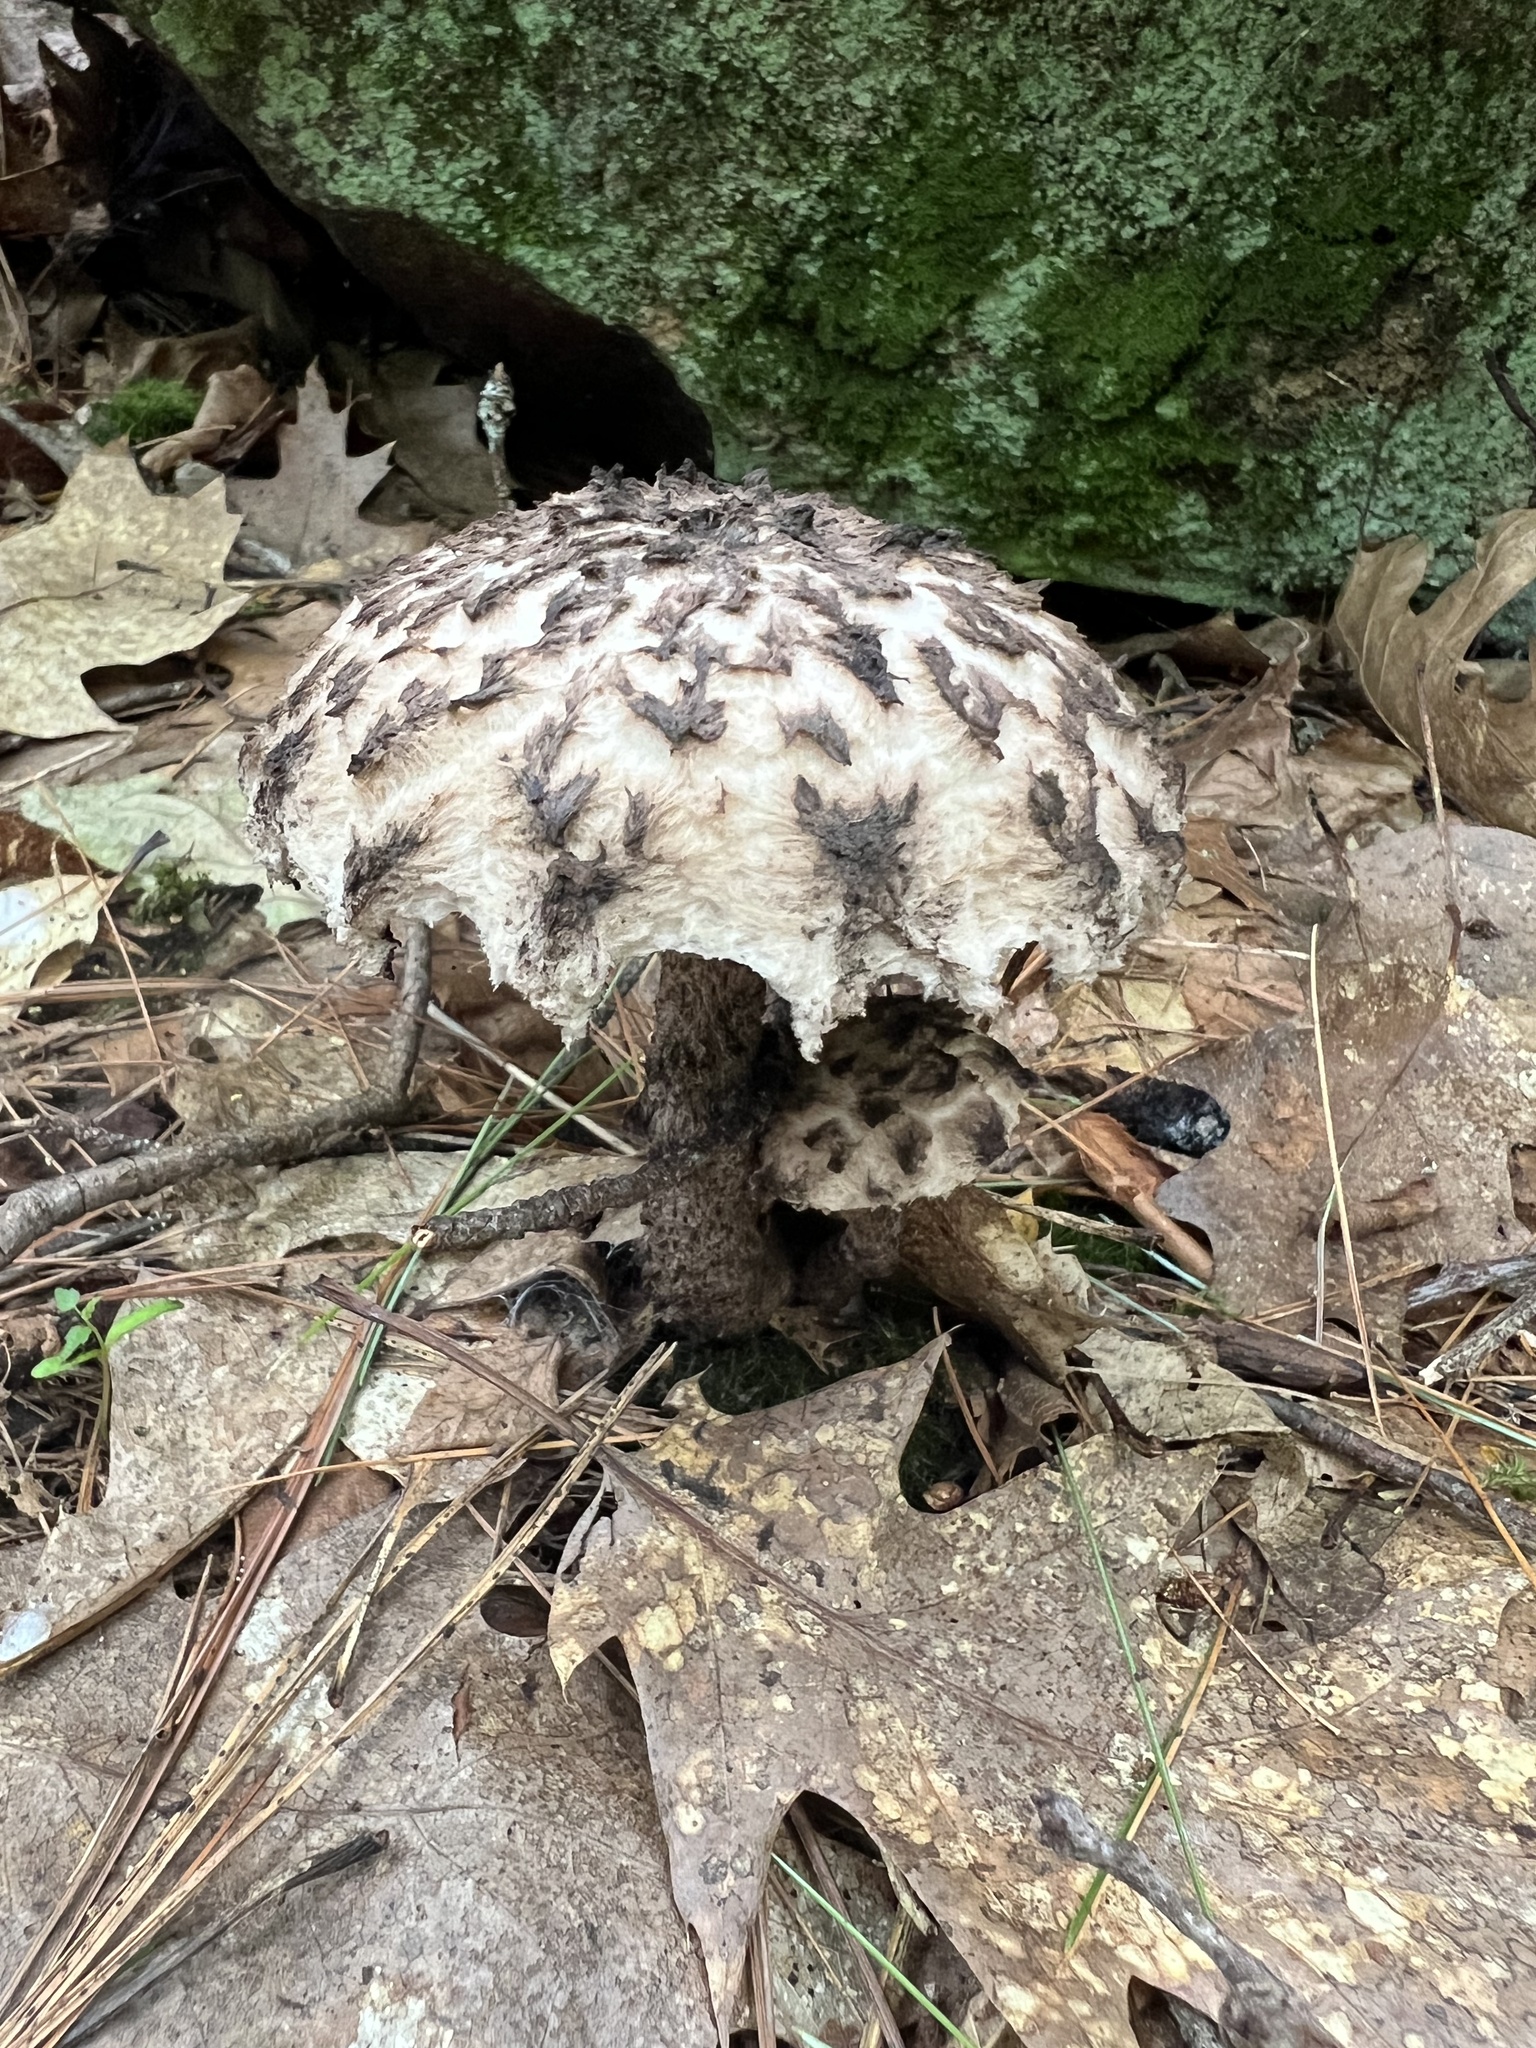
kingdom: Fungi
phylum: Basidiomycota
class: Agaricomycetes
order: Boletales
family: Boletaceae
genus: Strobilomyces
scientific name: Strobilomyces strobilaceus
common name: Old man of the woods
